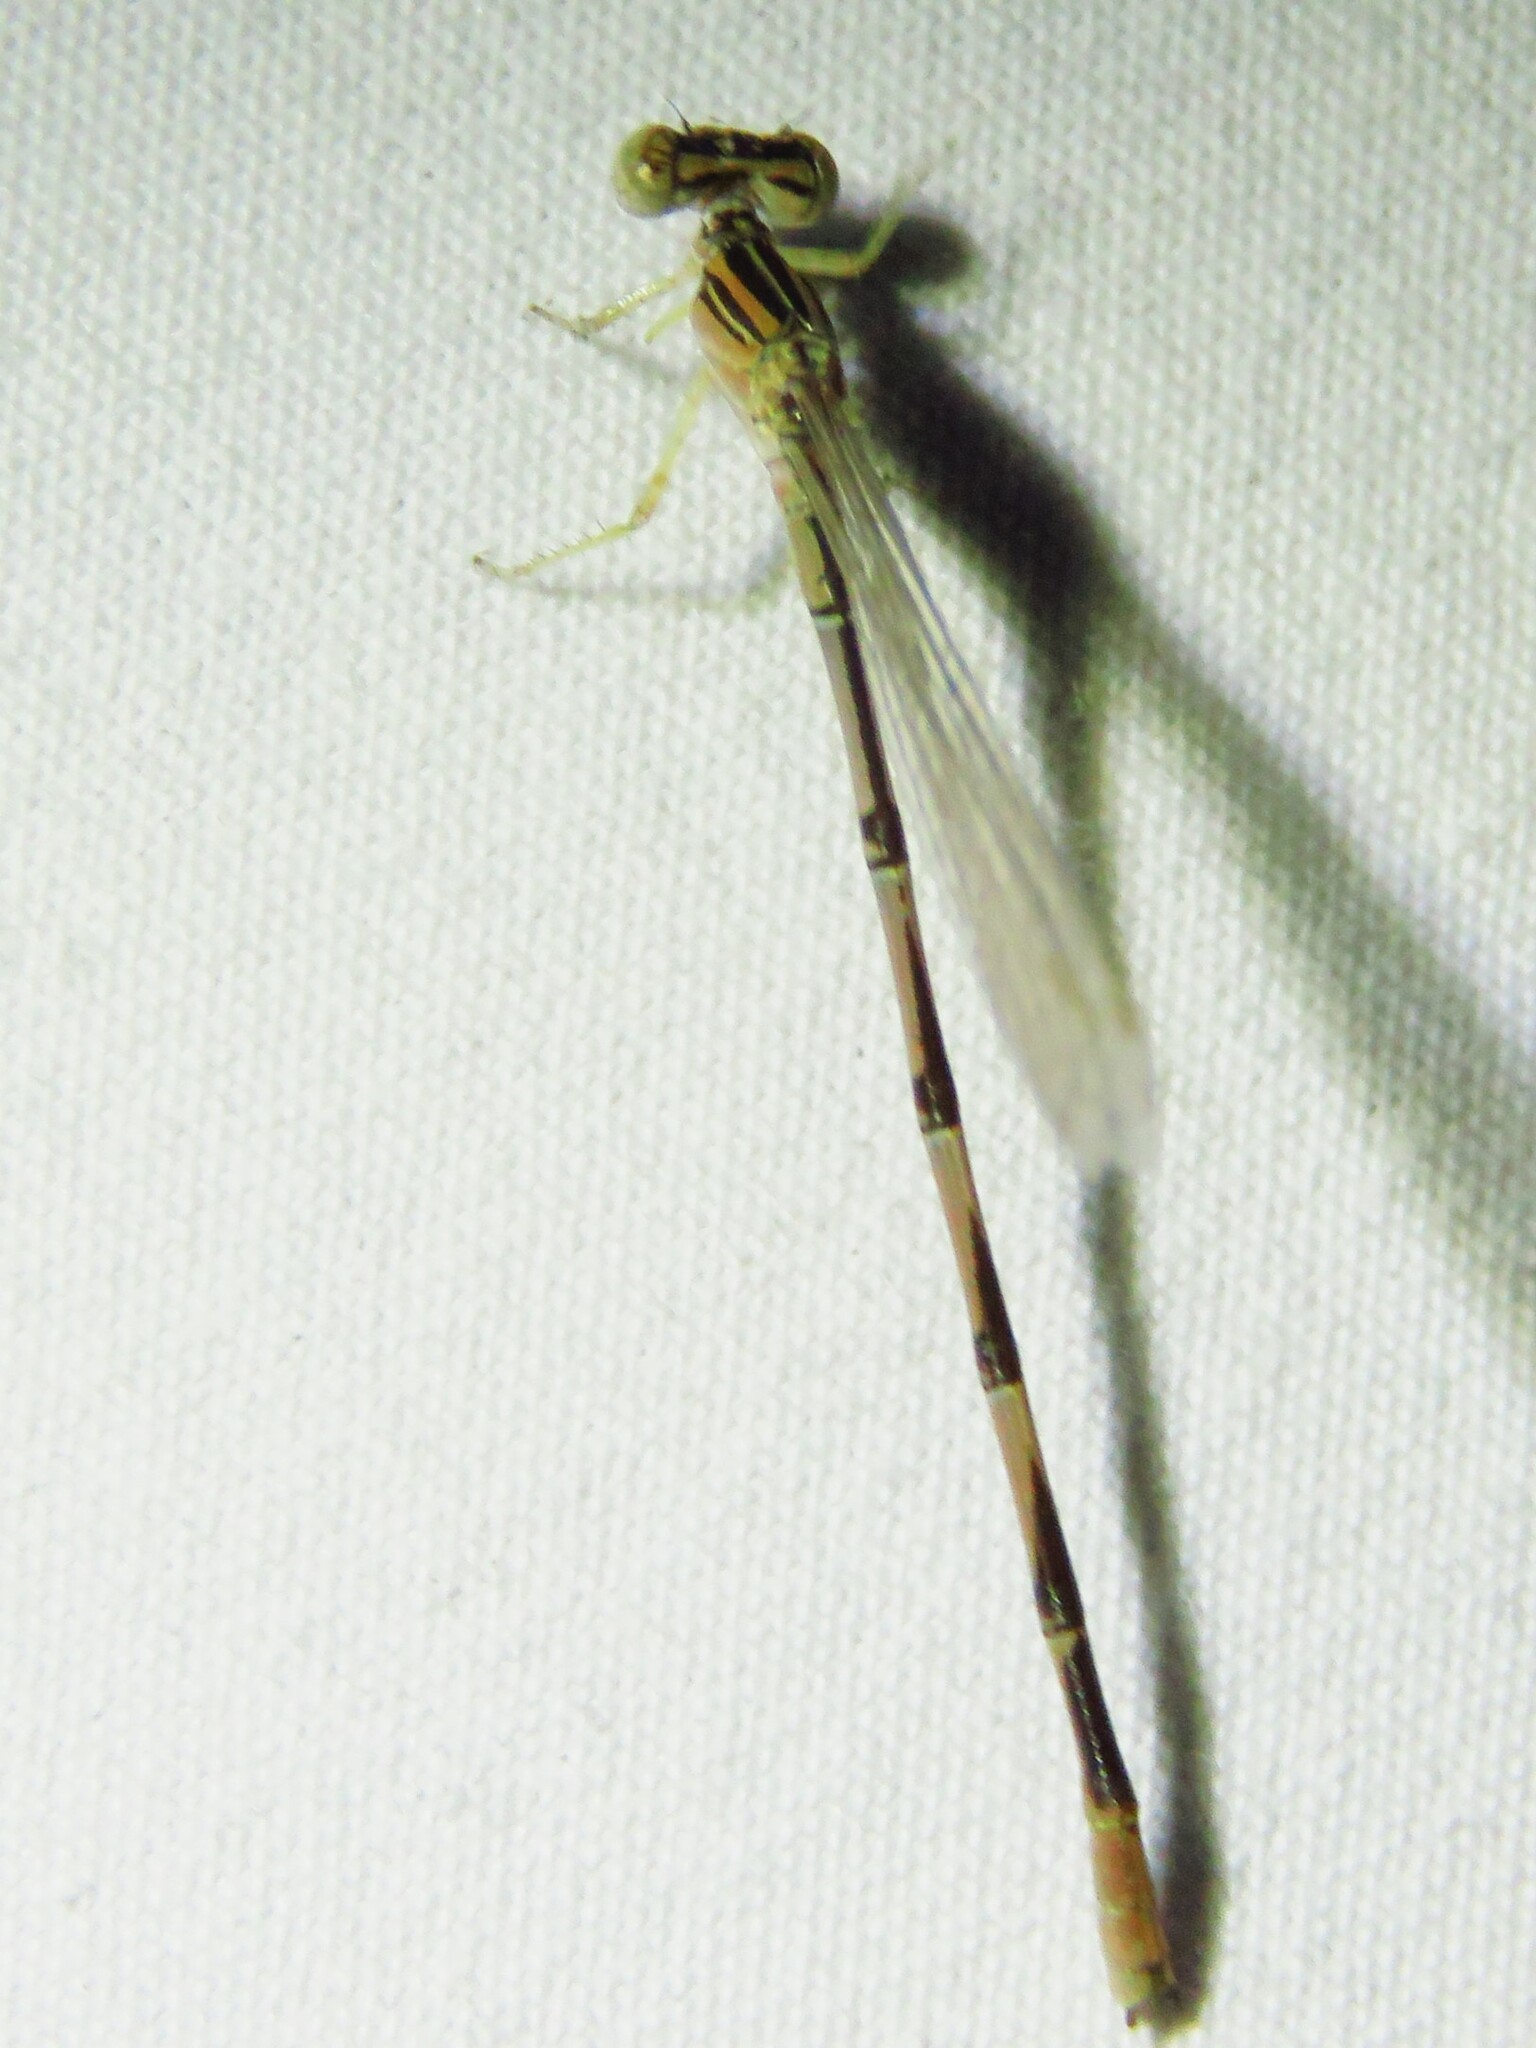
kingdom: Animalia
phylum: Arthropoda
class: Insecta
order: Odonata
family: Coenagrionidae
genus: Enallagma
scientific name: Enallagma basidens
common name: Double-striped bluet
